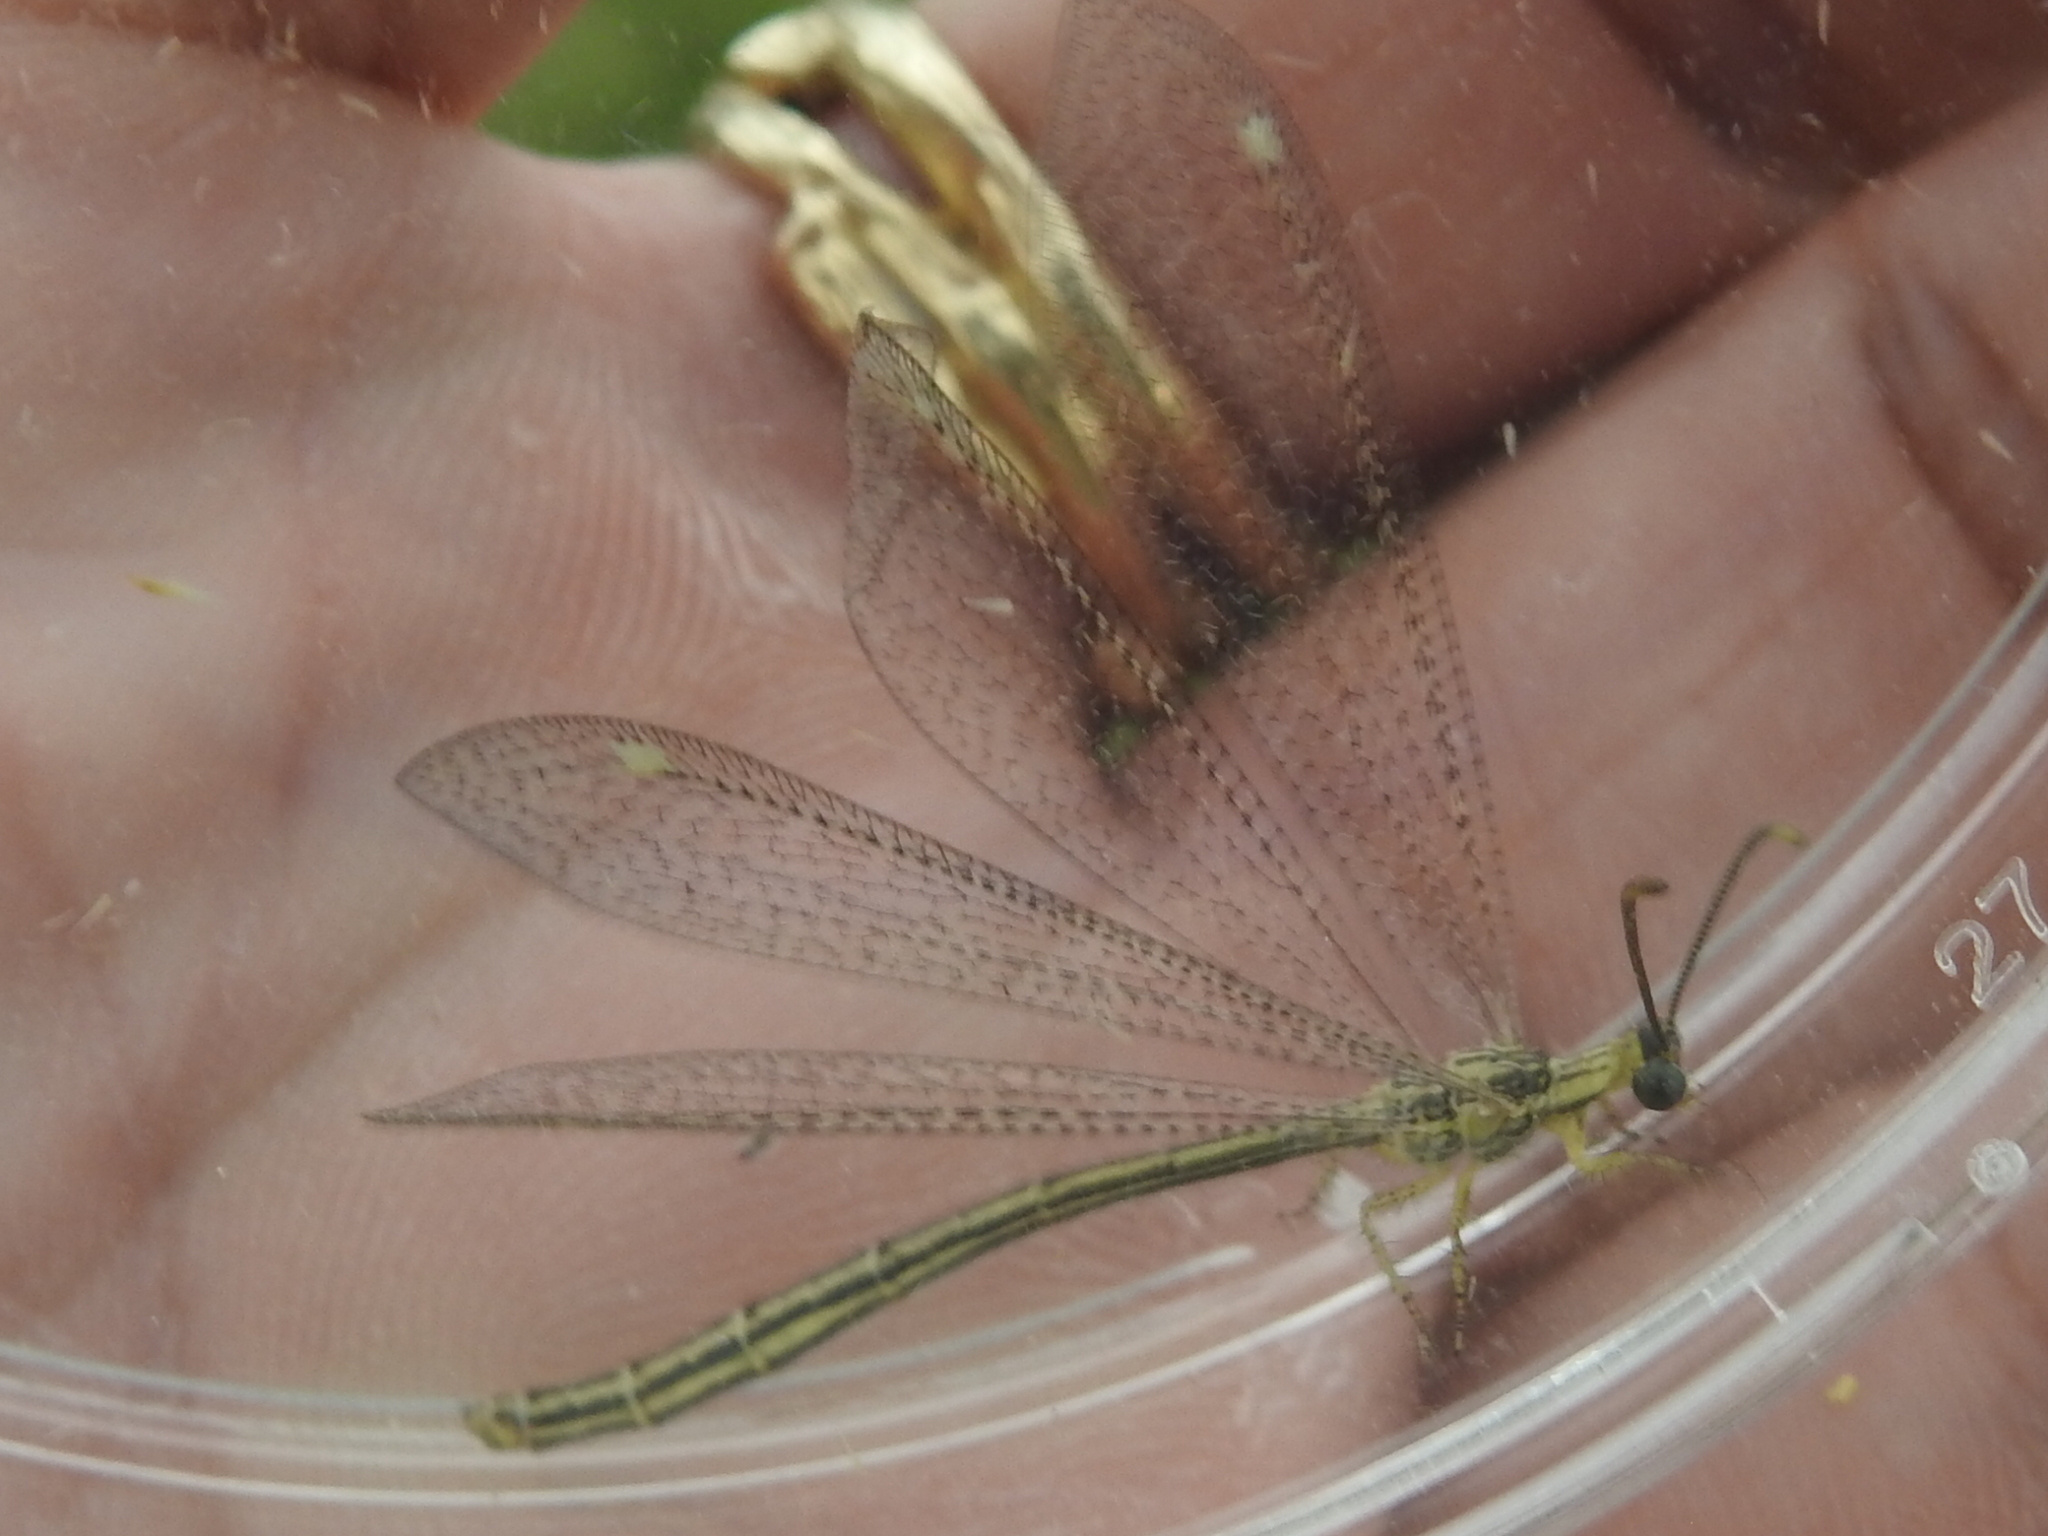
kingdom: Animalia
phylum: Arthropoda
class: Insecta
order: Neuroptera
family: Myrmeleontidae
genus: Brachynemurus
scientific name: Brachynemurus hubbardii
